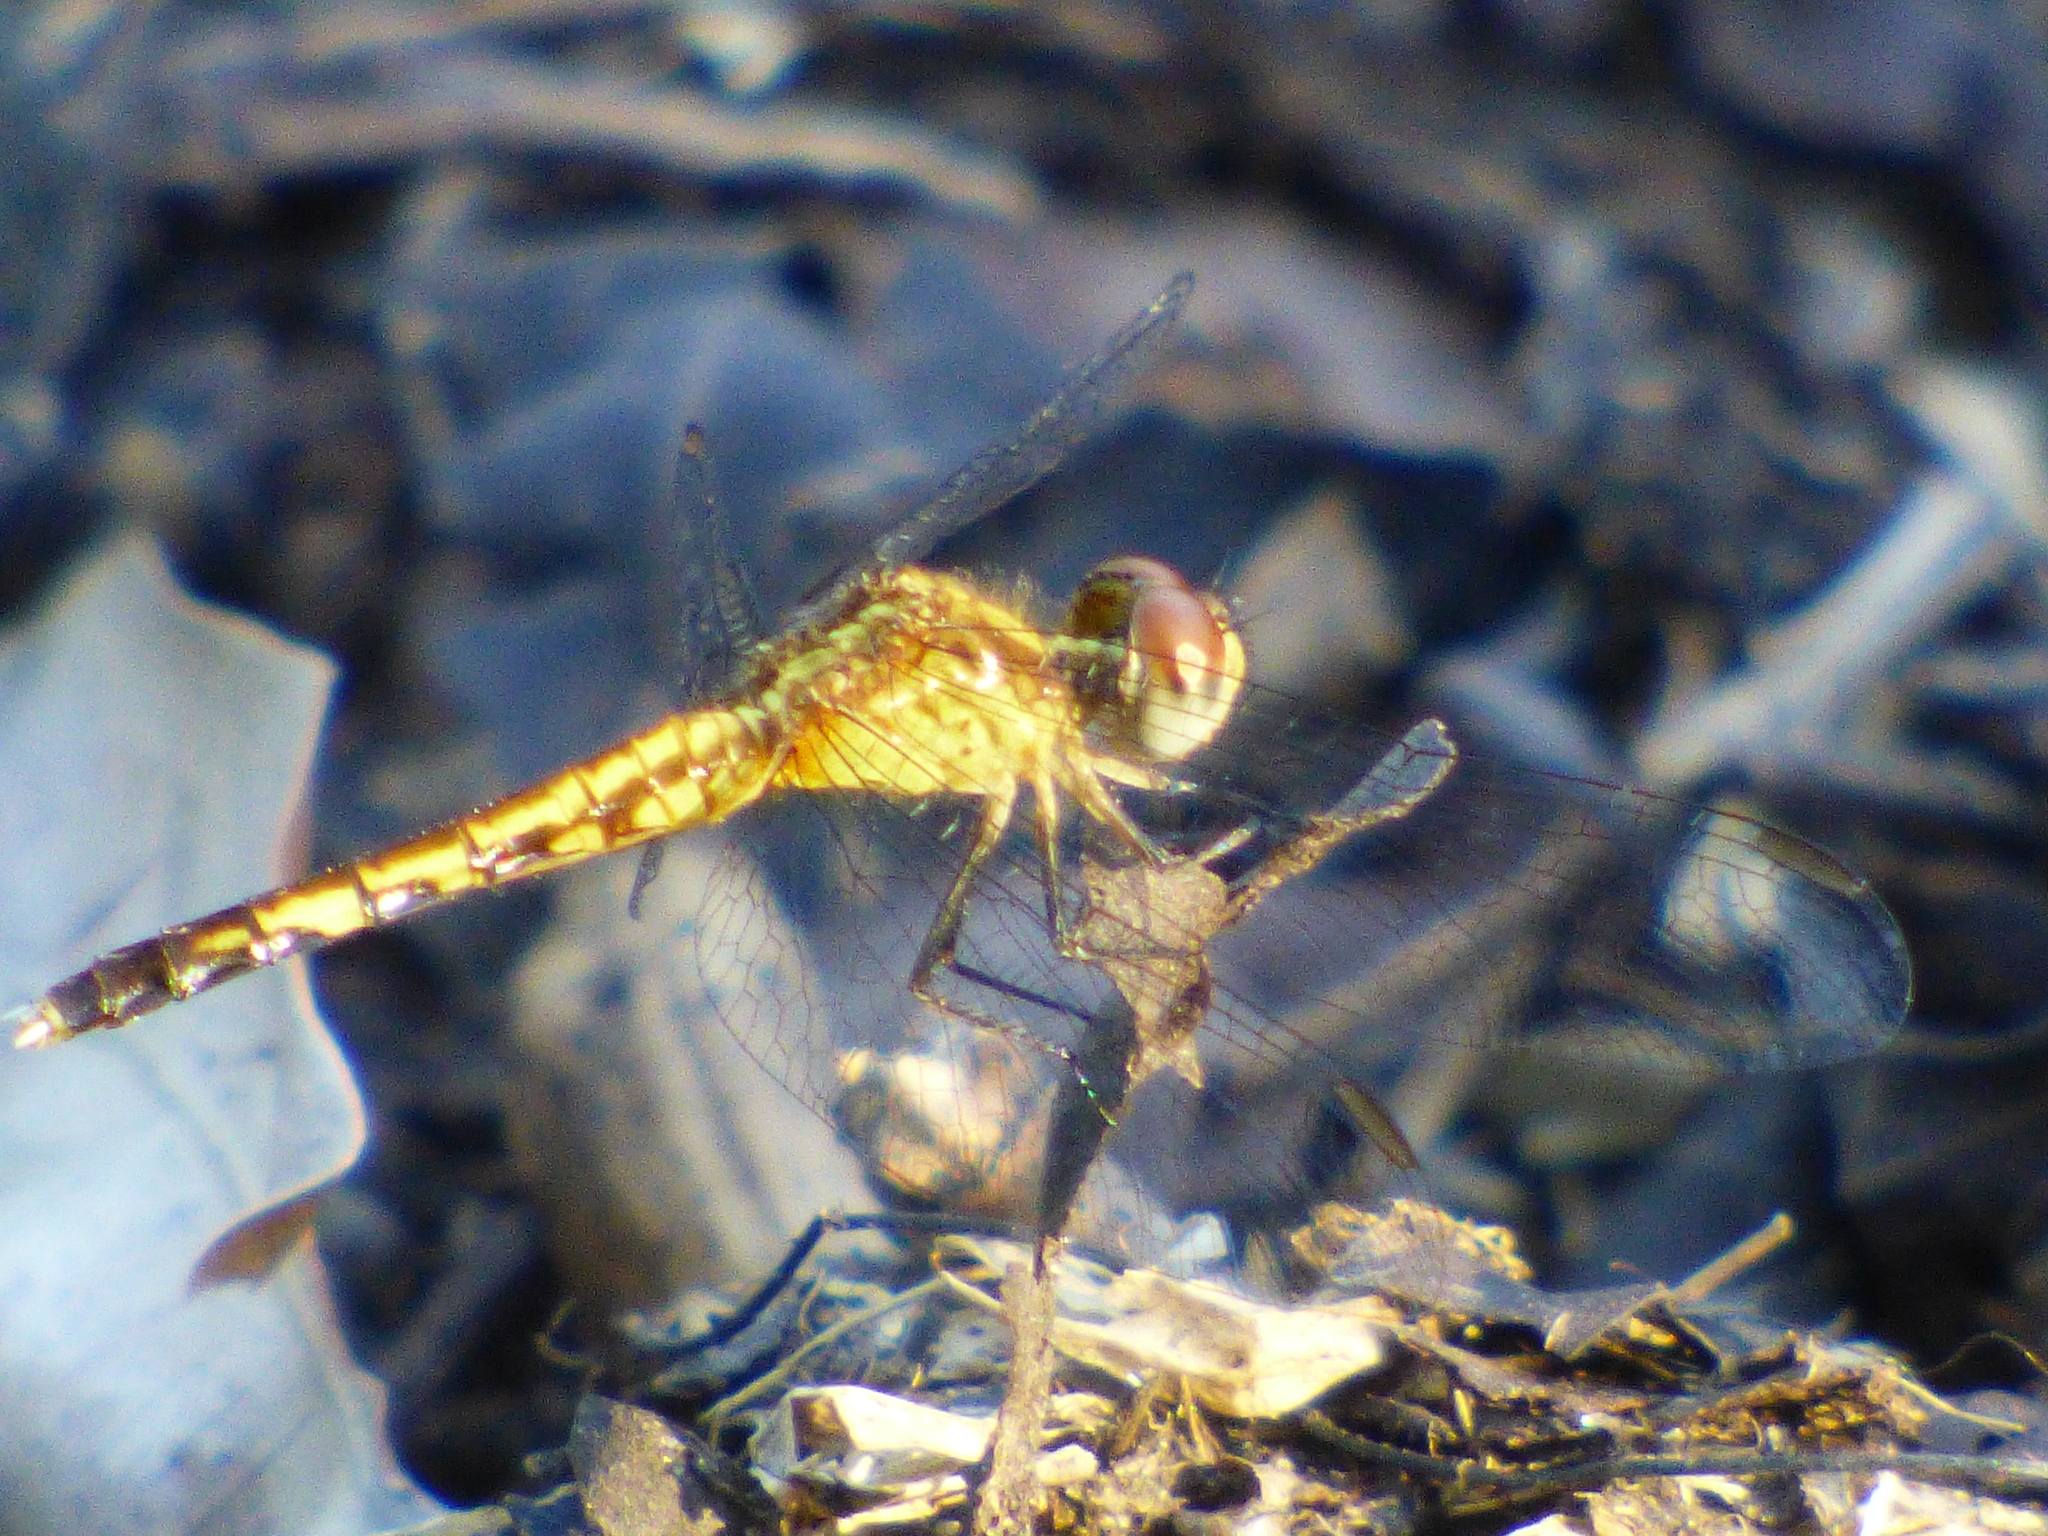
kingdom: Animalia
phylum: Arthropoda
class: Insecta
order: Odonata
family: Libellulidae
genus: Erythrodiplax
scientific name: Erythrodiplax minuscula
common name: Little blue dragonlet
